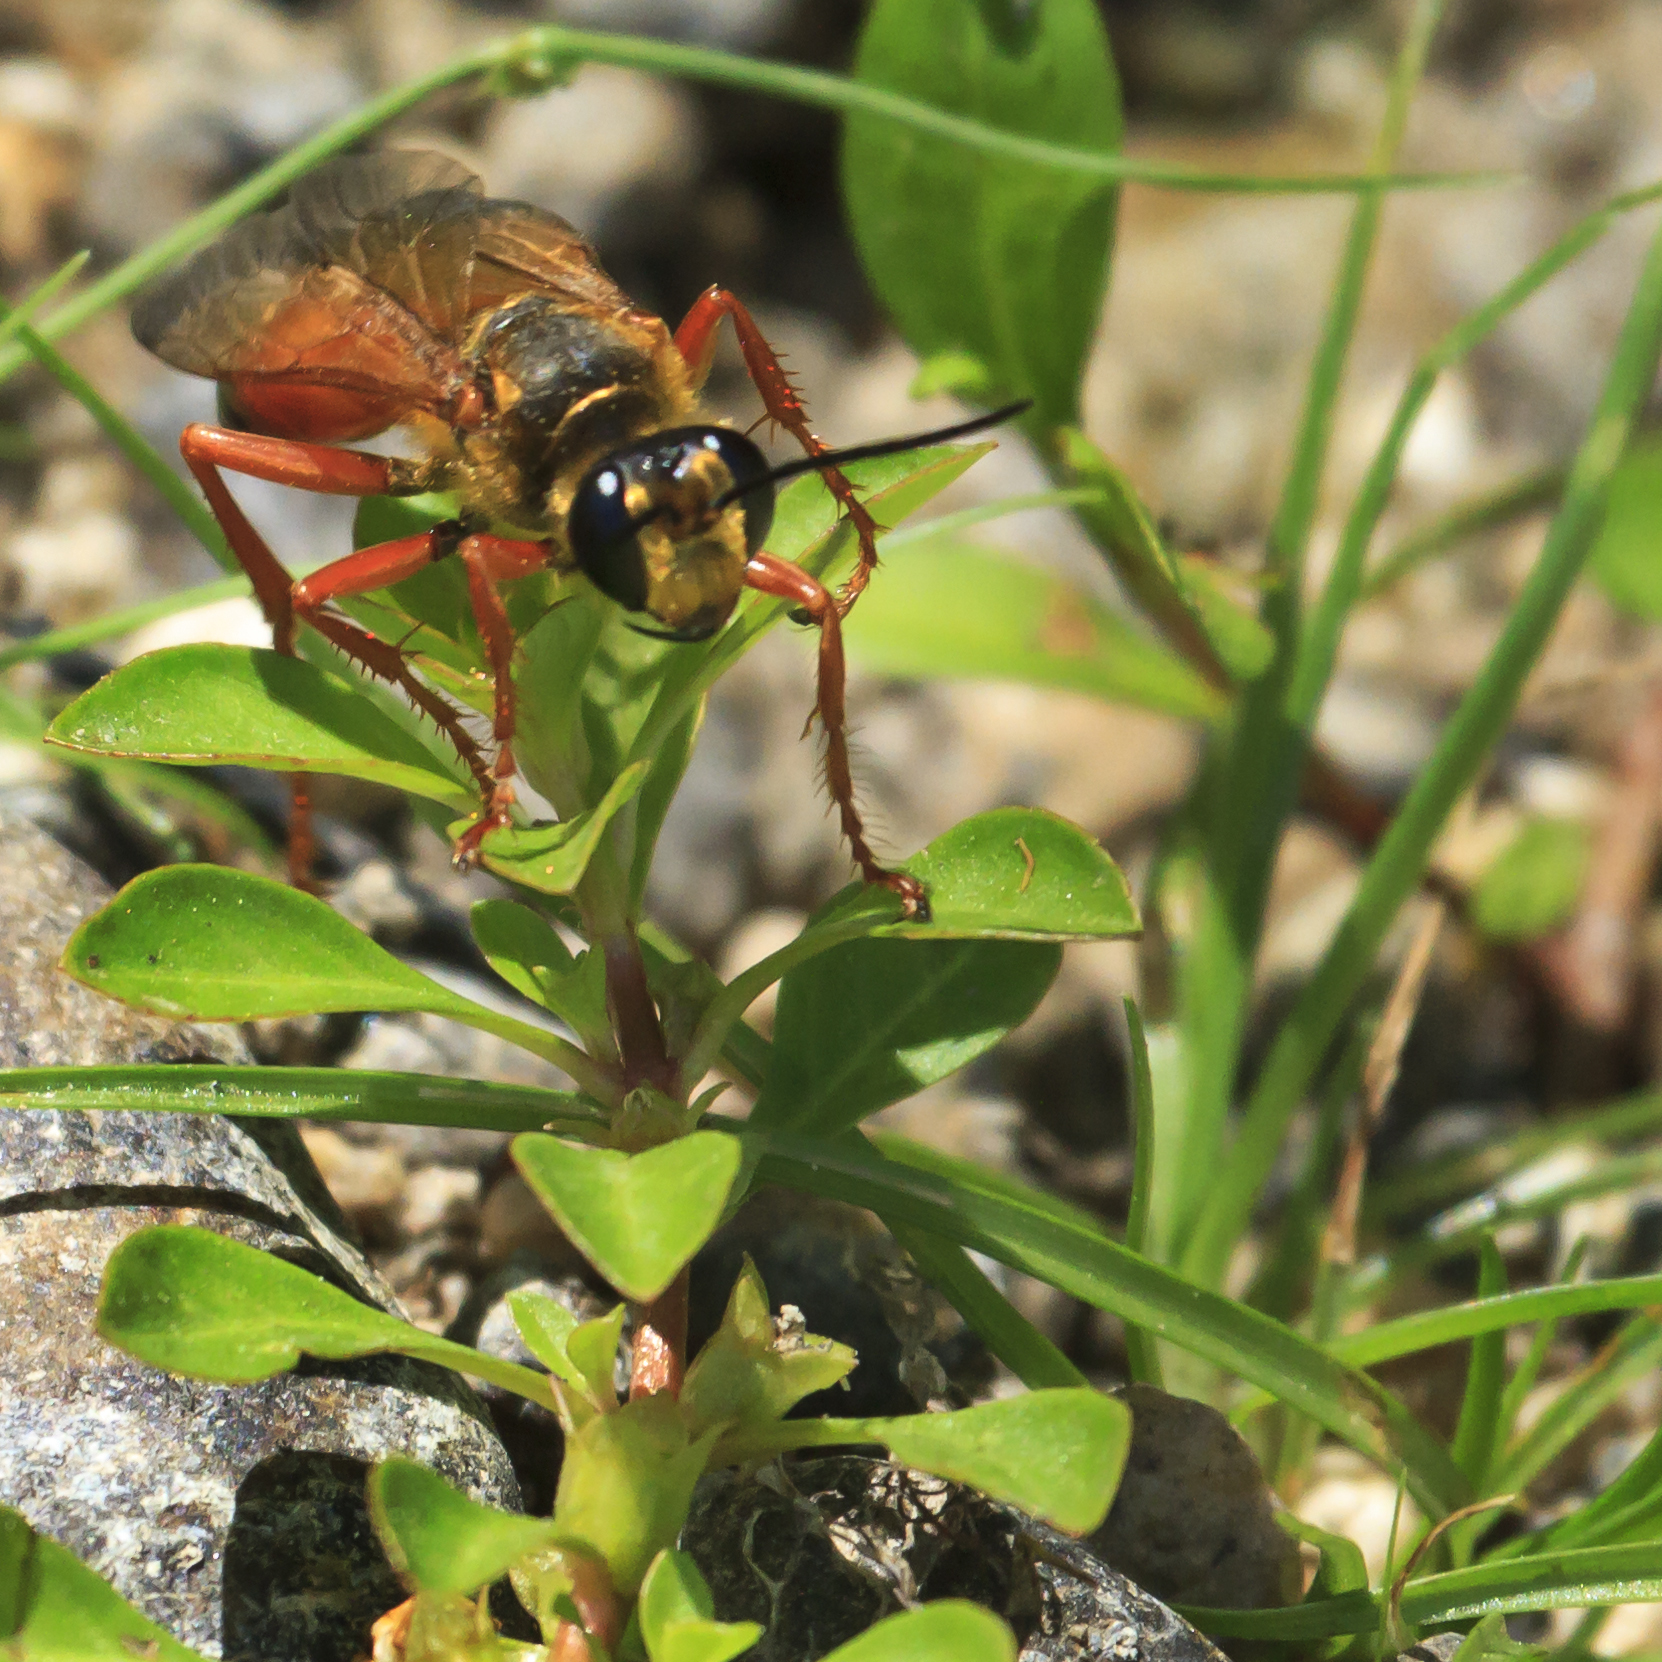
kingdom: Animalia
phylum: Arthropoda
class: Insecta
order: Hymenoptera
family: Sphecidae
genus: Sphex
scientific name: Sphex ichneumoneus
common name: Great golden digger wasp
